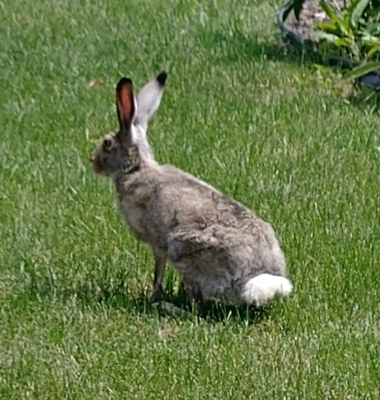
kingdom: Animalia
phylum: Chordata
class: Mammalia
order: Lagomorpha
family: Leporidae
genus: Lepus
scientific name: Lepus townsendii
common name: White-tailed jackrabbit
